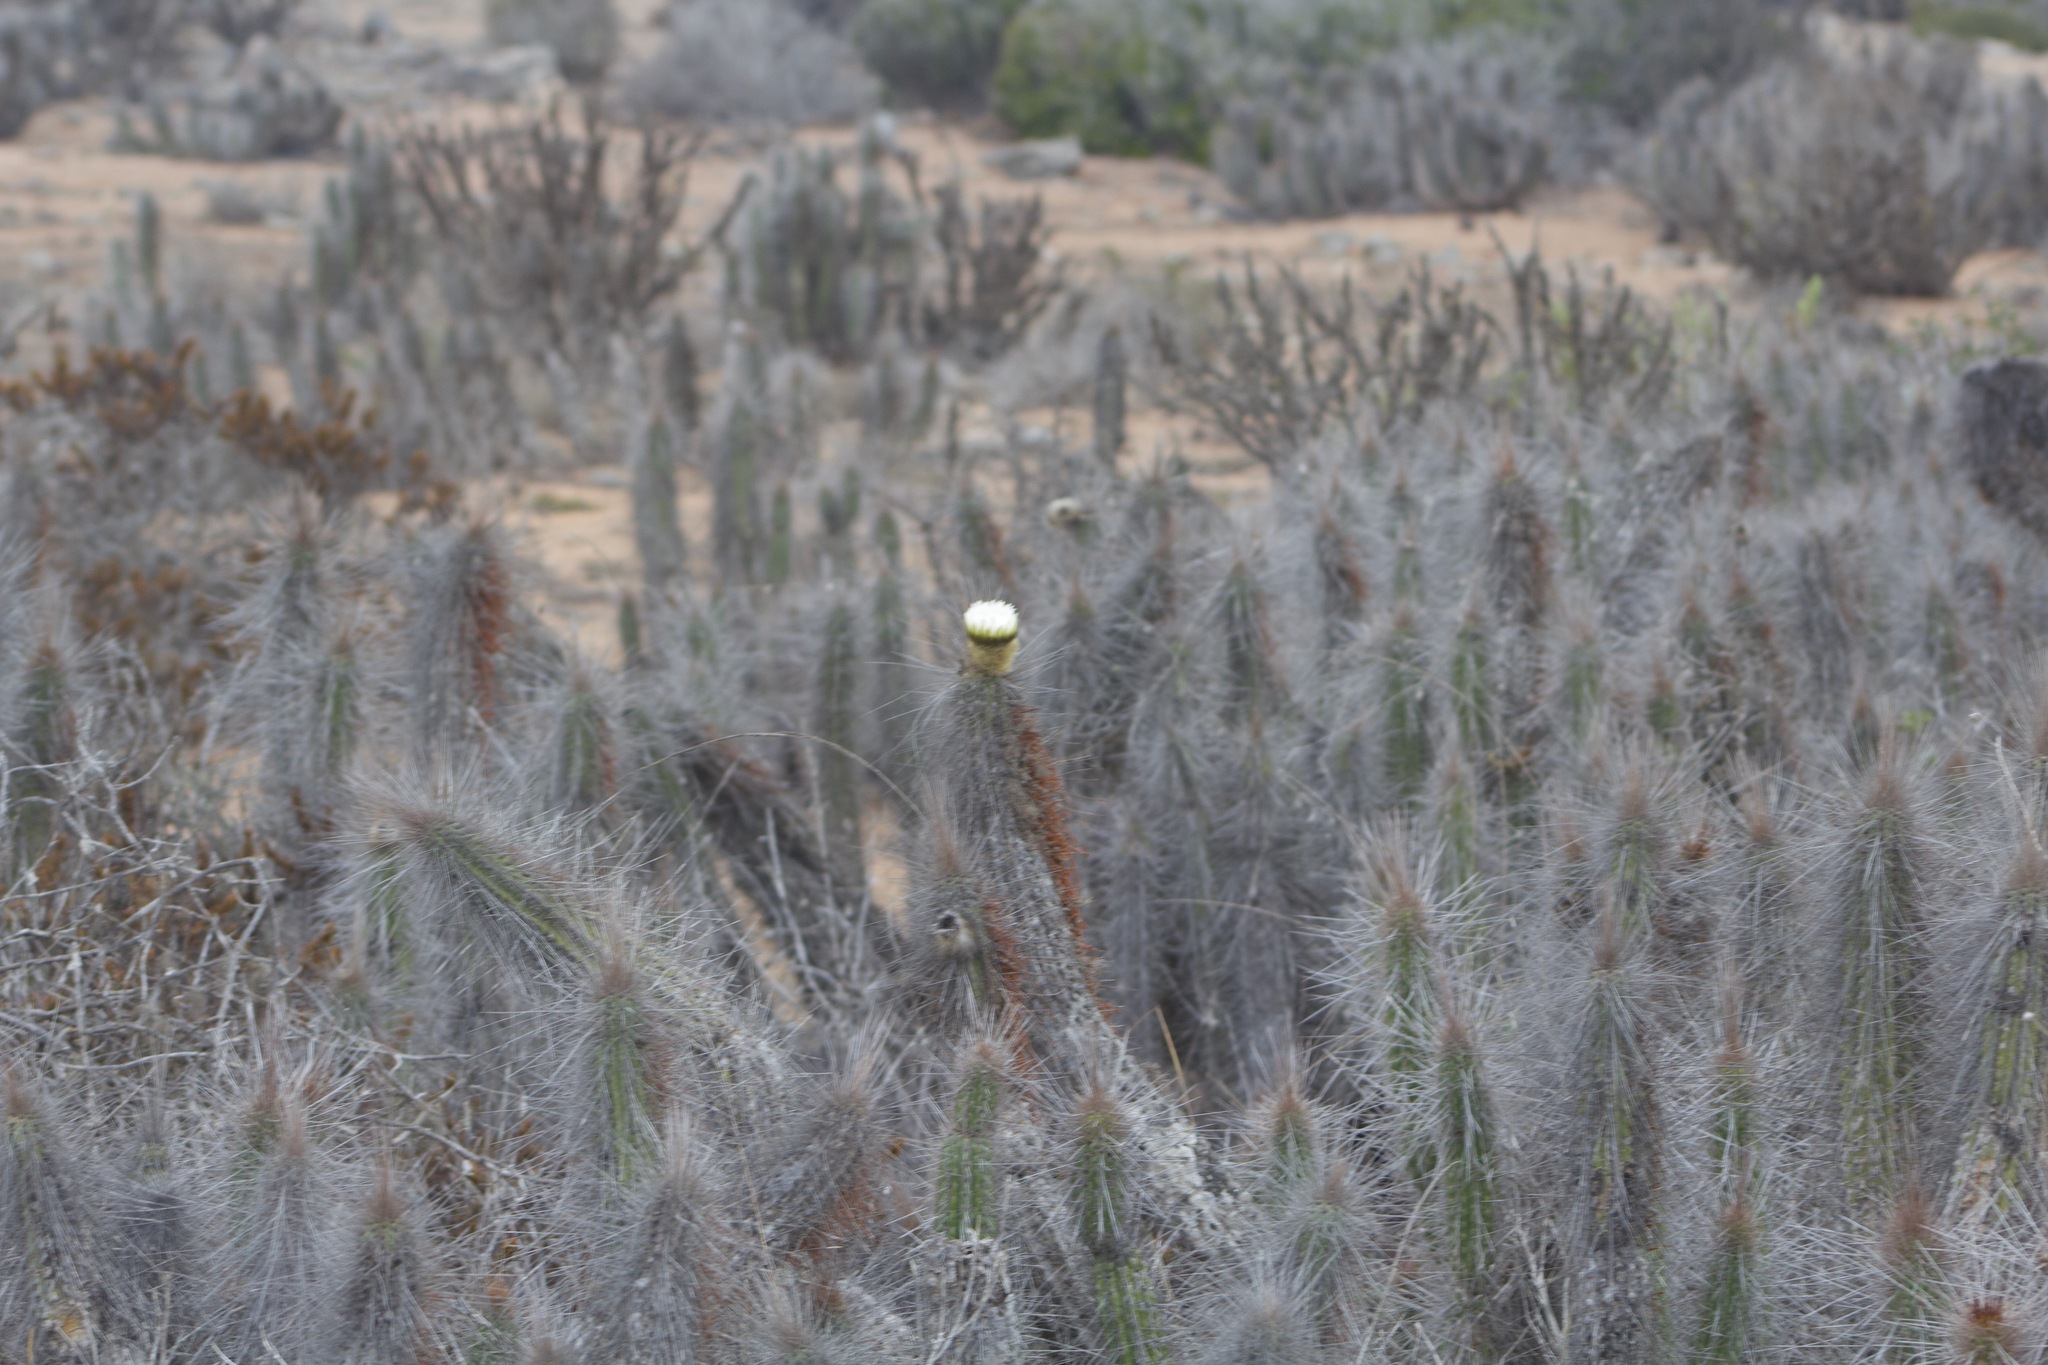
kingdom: Plantae
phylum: Tracheophyta
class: Magnoliopsida
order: Caryophyllales
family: Cactaceae
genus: Eulychnia
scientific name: Eulychnia breviflora
